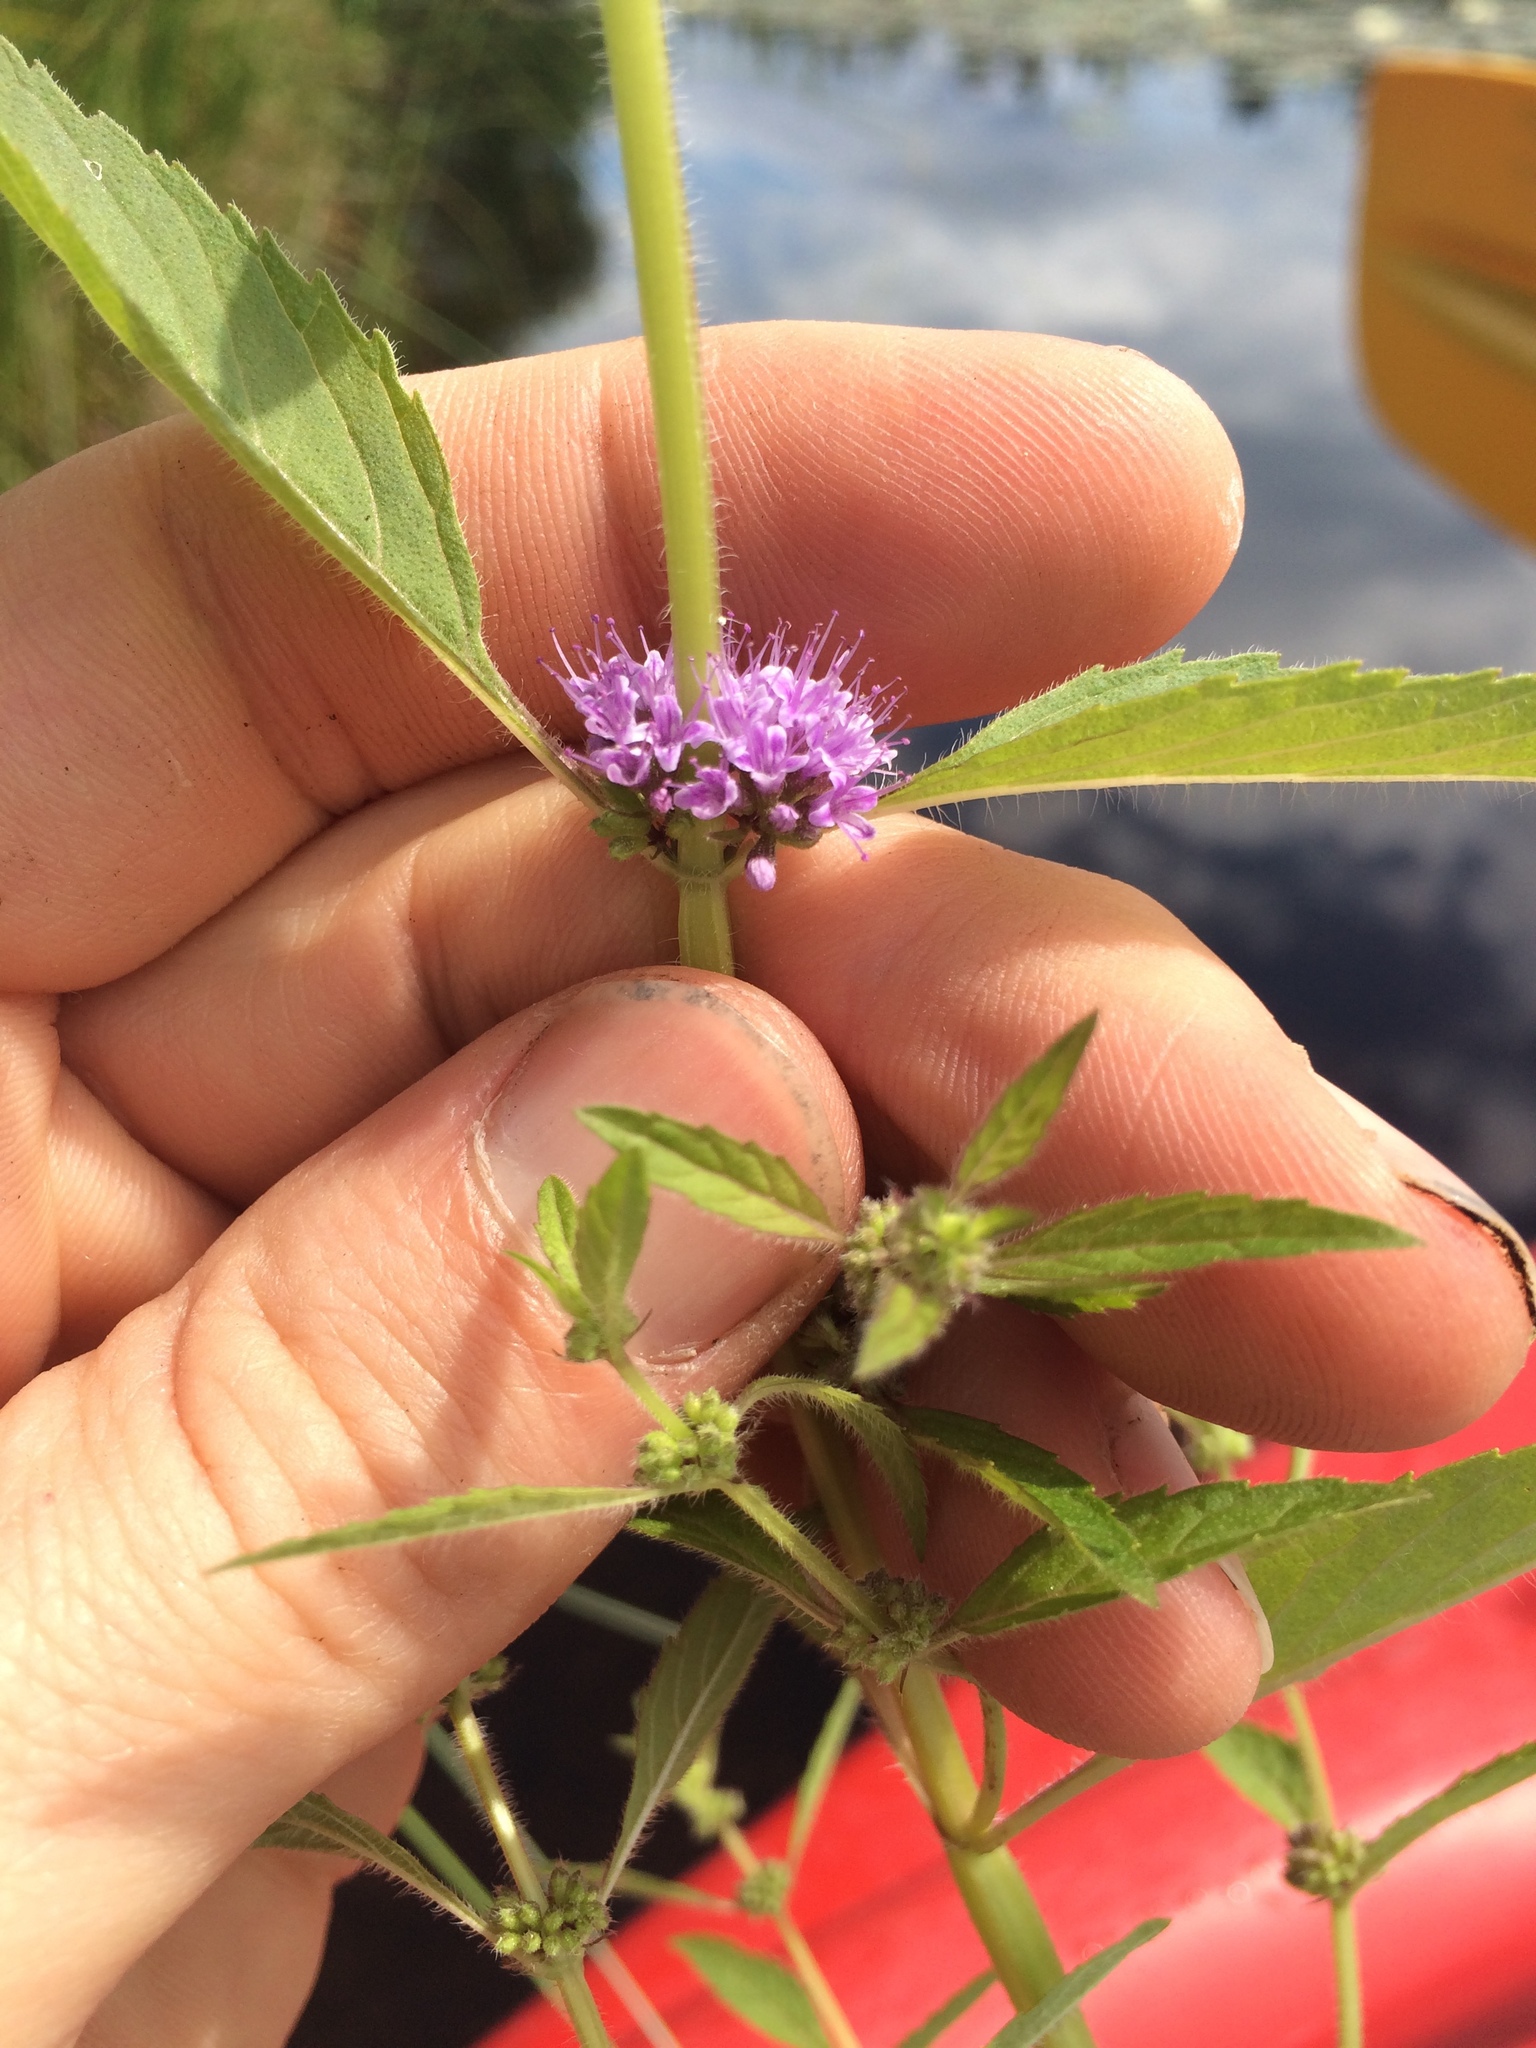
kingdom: Plantae
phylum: Tracheophyta
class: Magnoliopsida
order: Lamiales
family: Lamiaceae
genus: Mentha
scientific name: Mentha arvensis
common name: Corn mint
